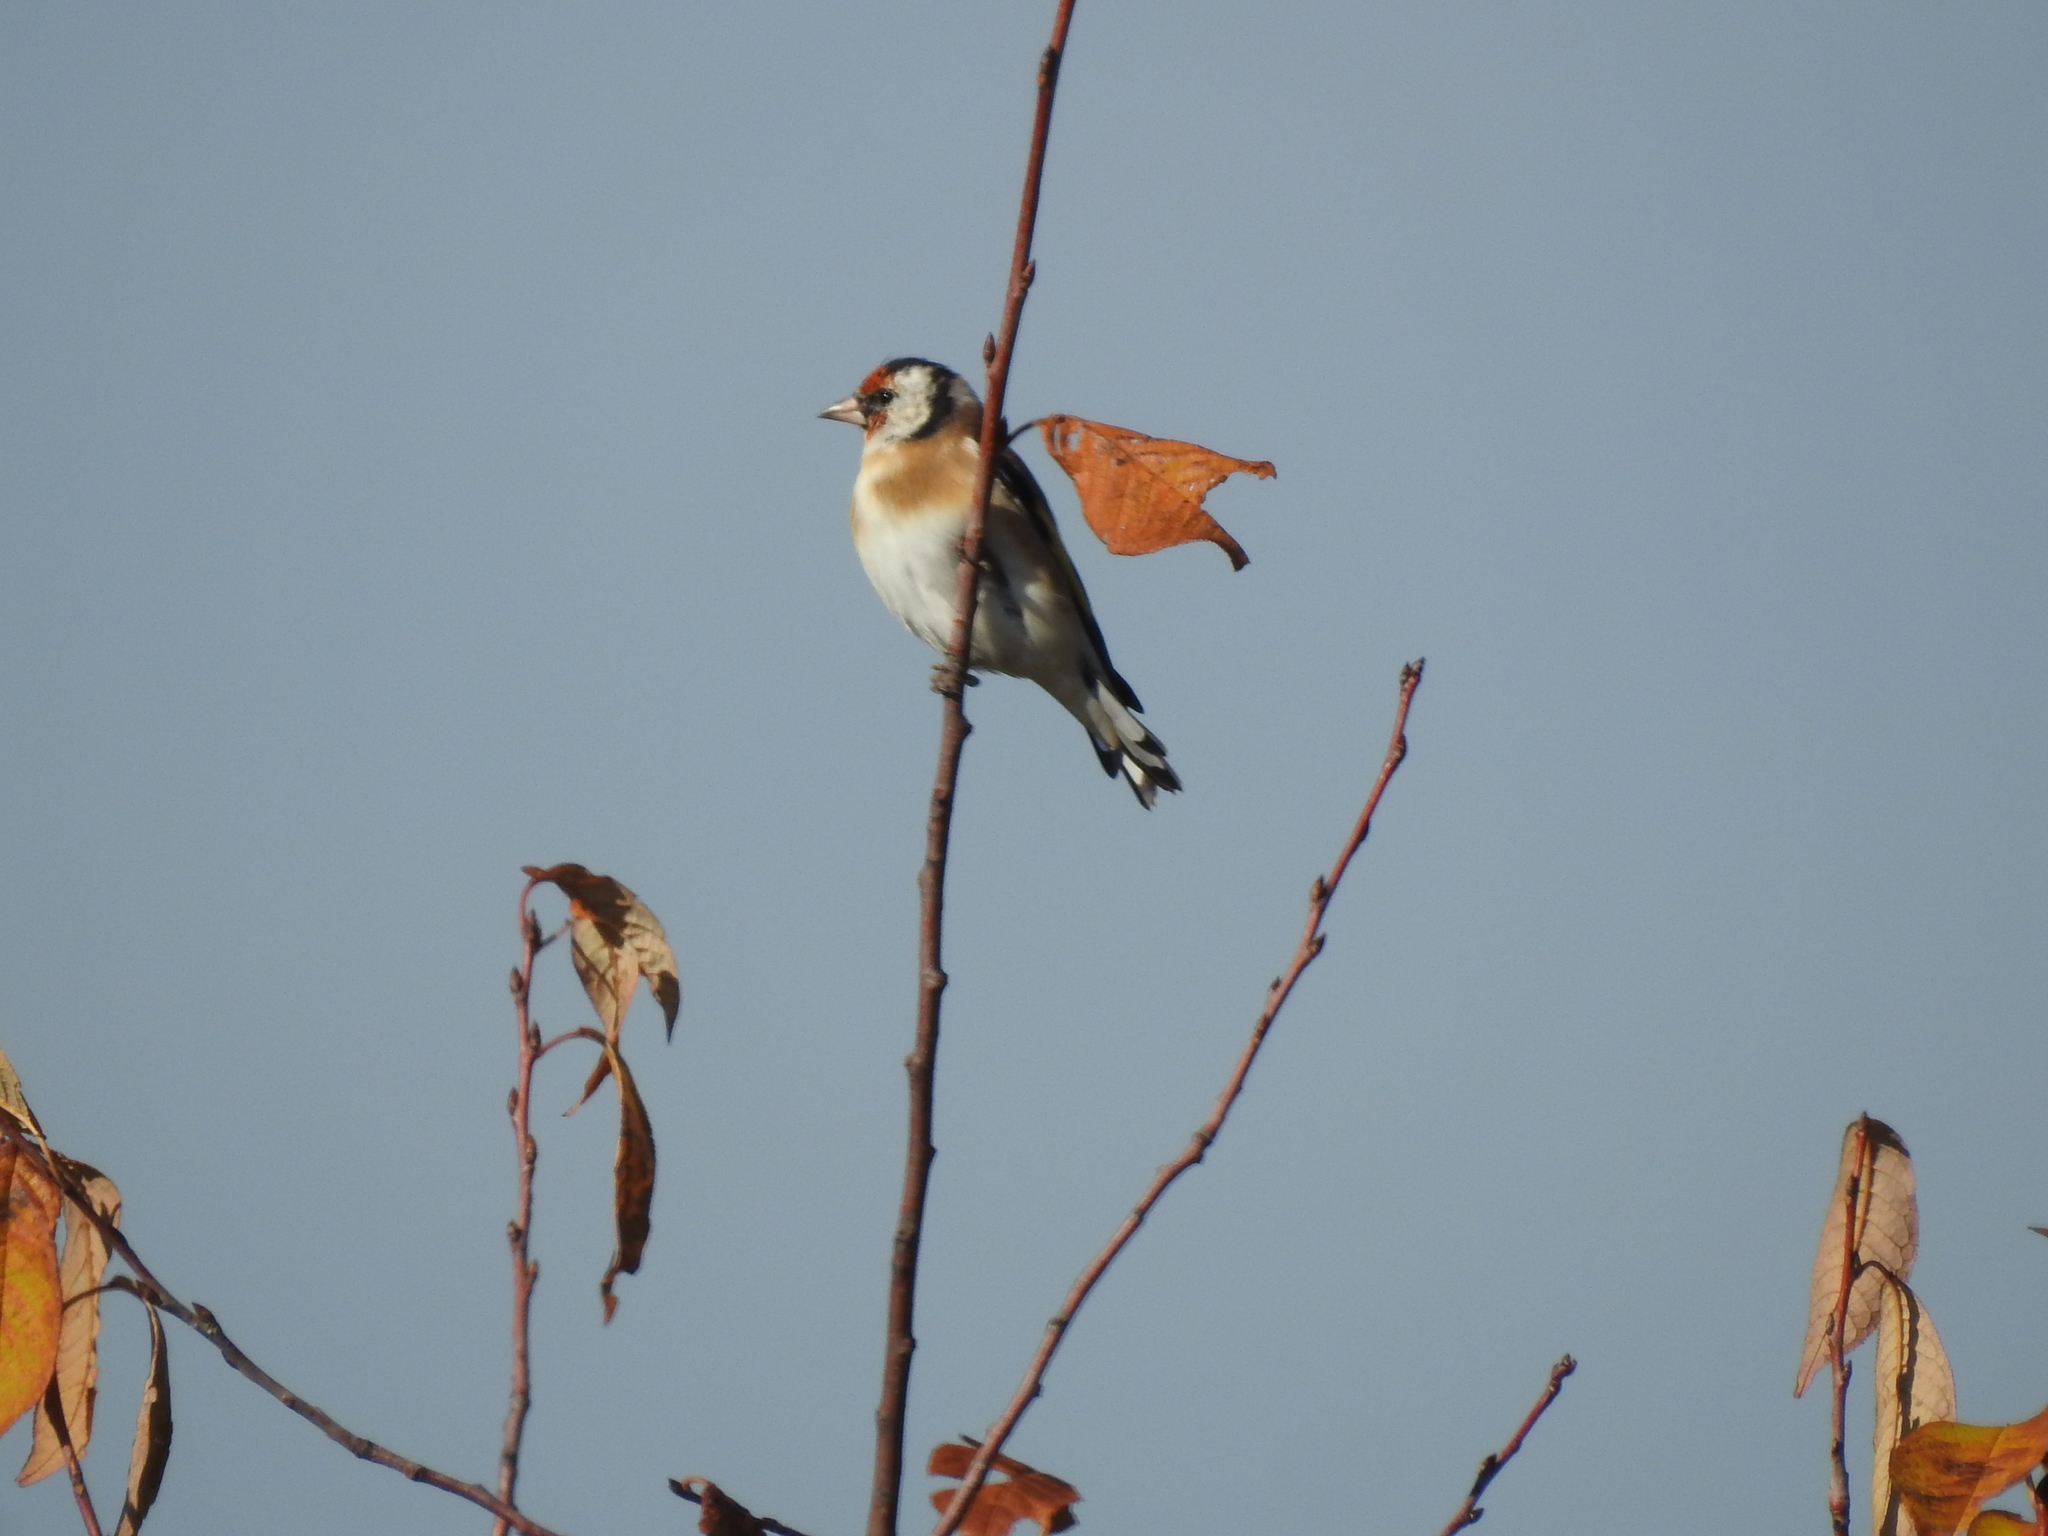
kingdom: Animalia
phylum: Chordata
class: Aves
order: Passeriformes
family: Fringillidae
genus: Carduelis
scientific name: Carduelis carduelis
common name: European goldfinch
